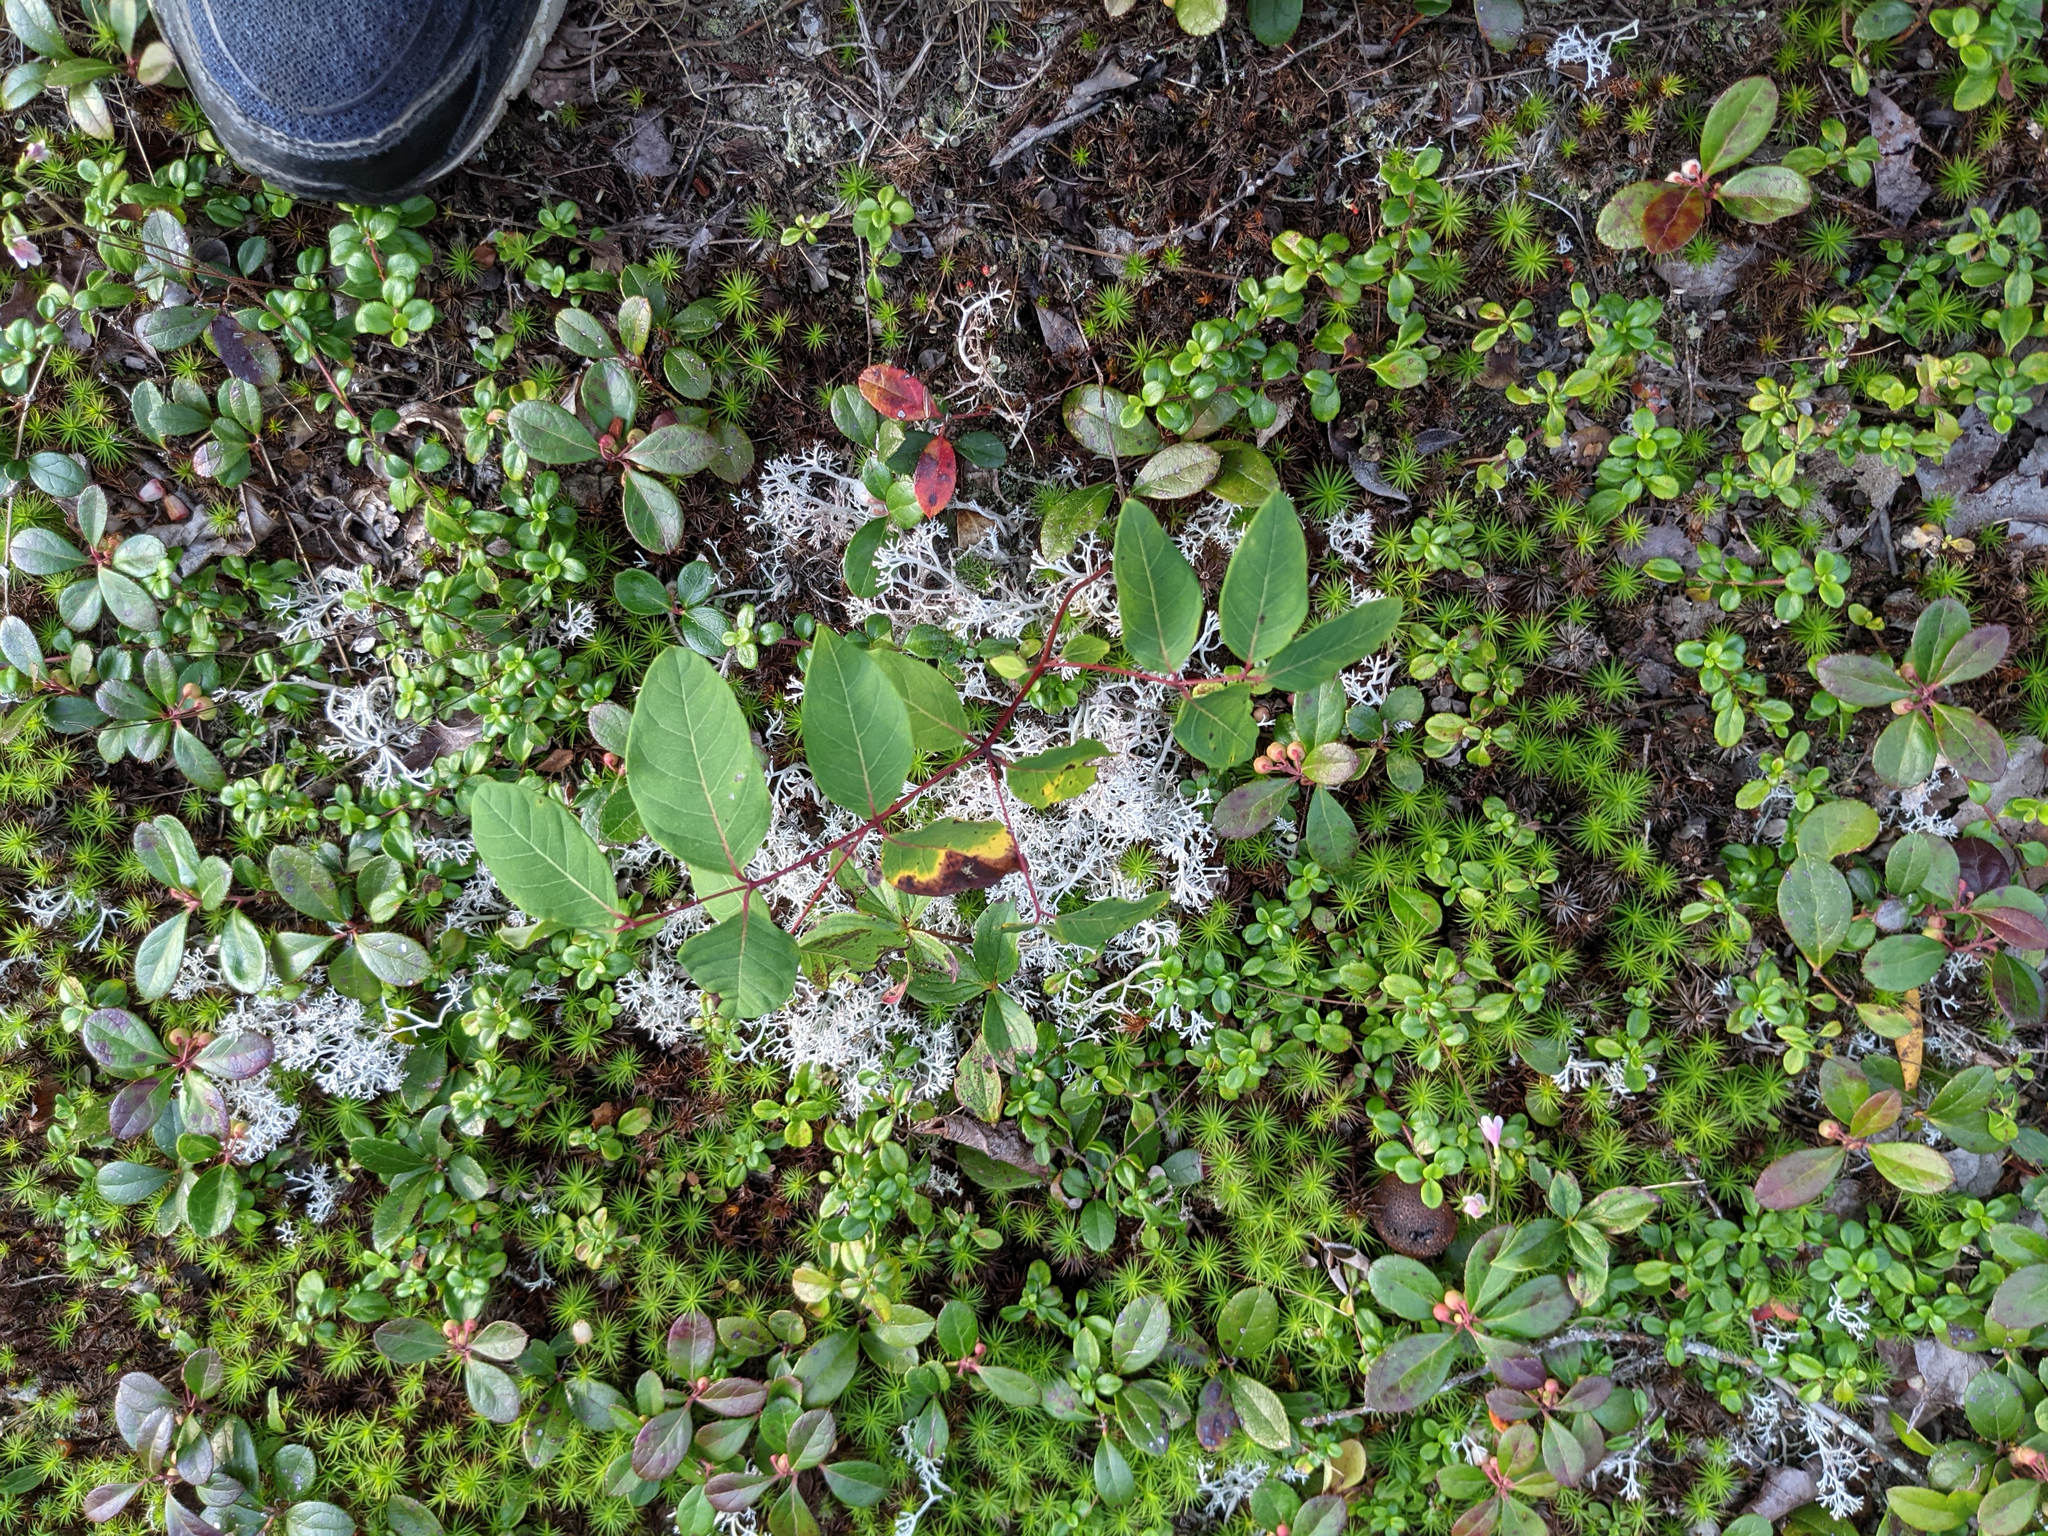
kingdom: Plantae
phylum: Tracheophyta
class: Magnoliopsida
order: Gentianales
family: Apocynaceae
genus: Apocynum
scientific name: Apocynum androsaemifolium
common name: Spreading dogbane
